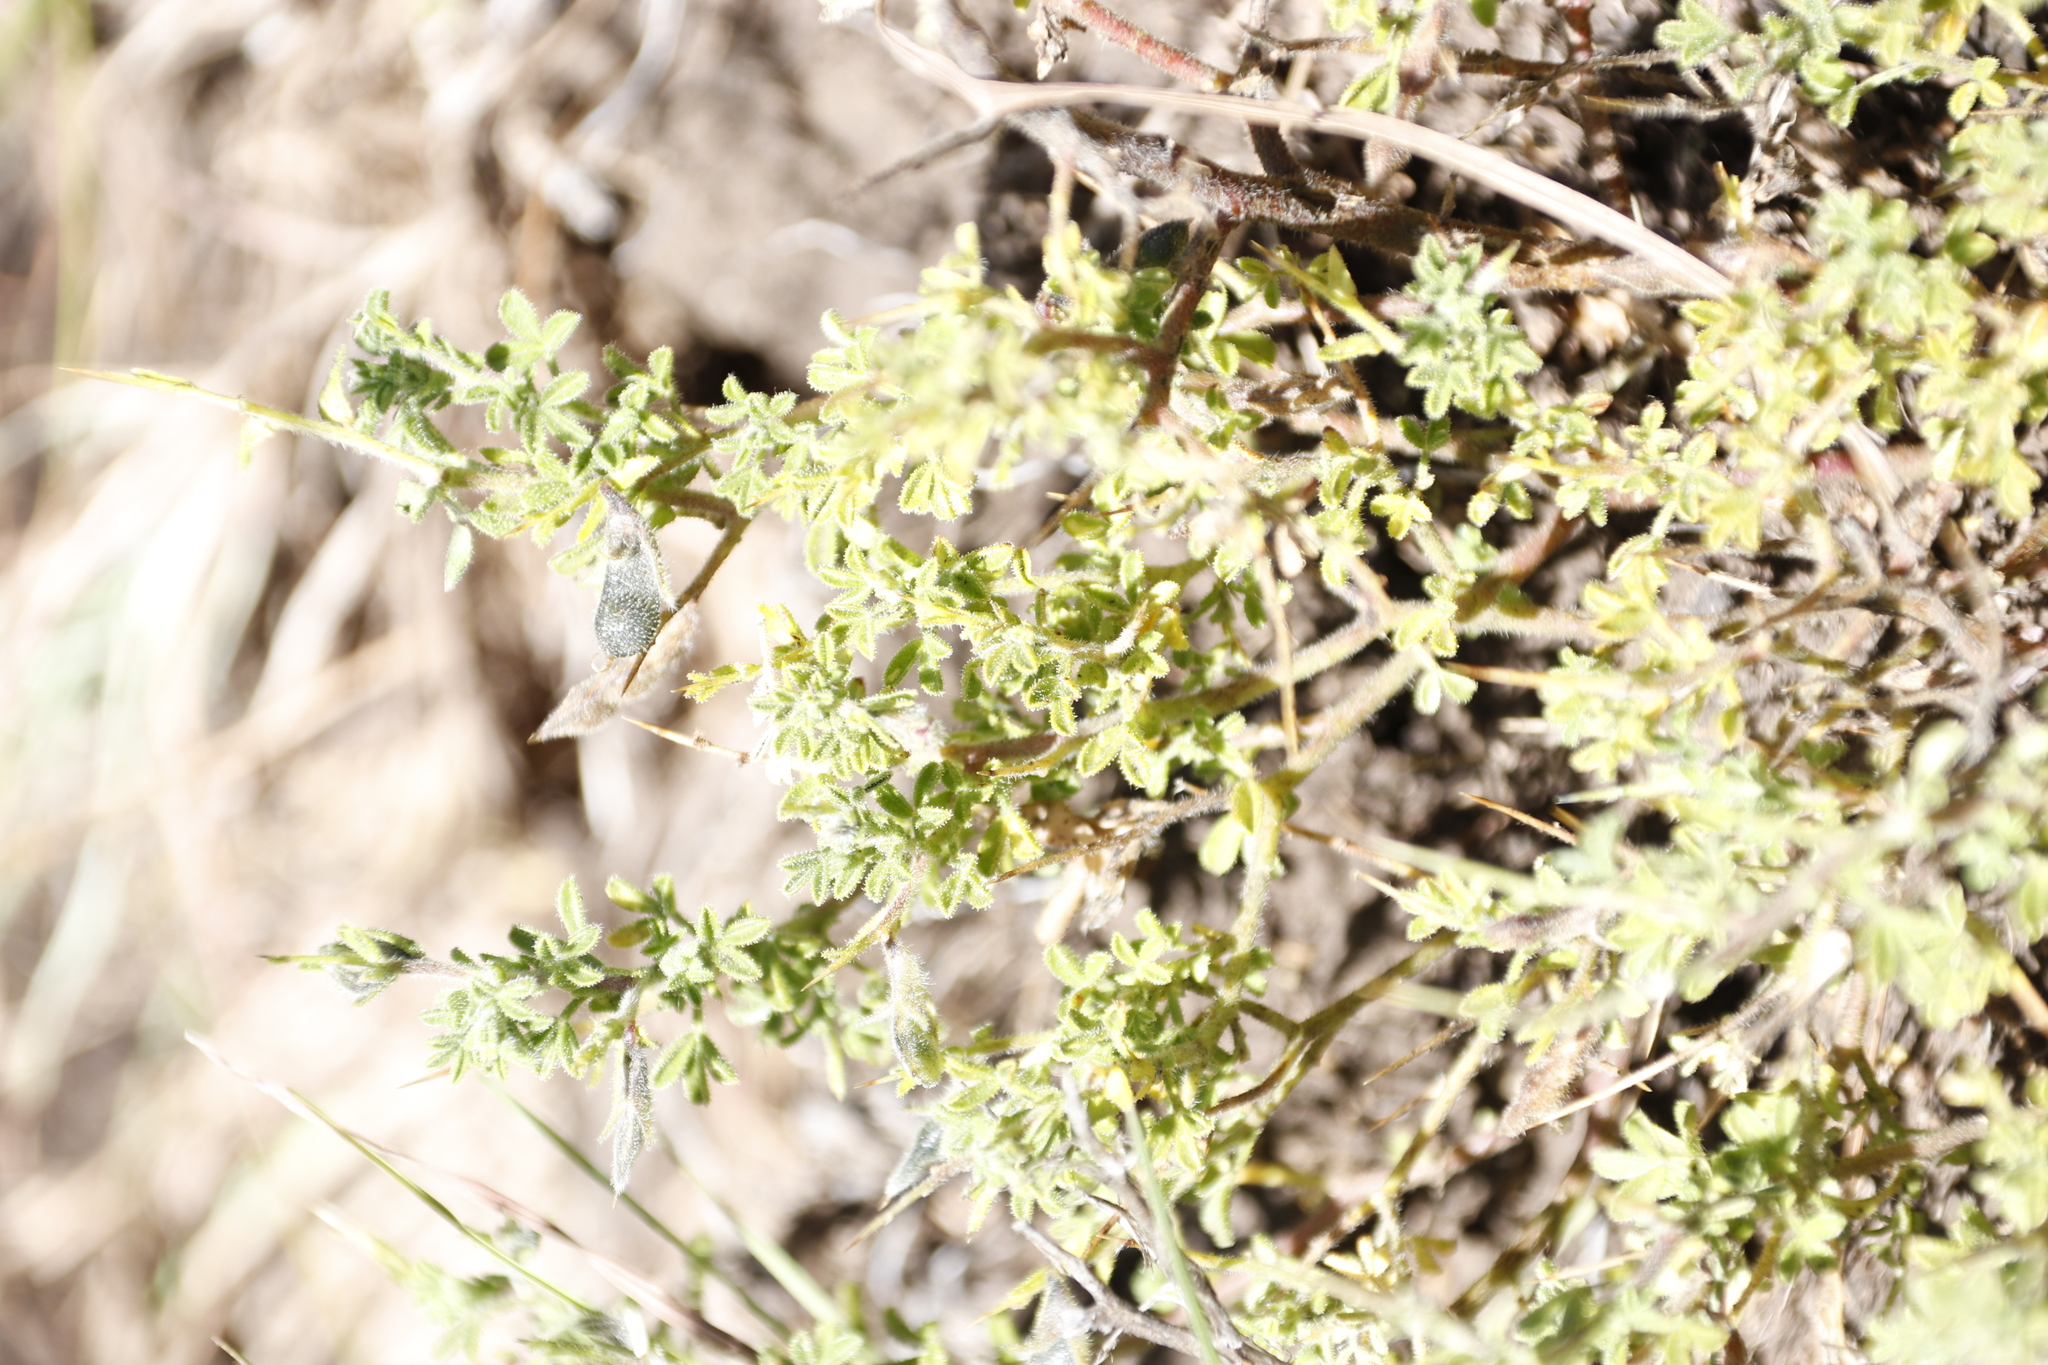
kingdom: Plantae
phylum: Tracheophyta
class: Magnoliopsida
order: Fabales
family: Fabaceae
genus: Melolobium
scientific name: Melolobium microphyllum
